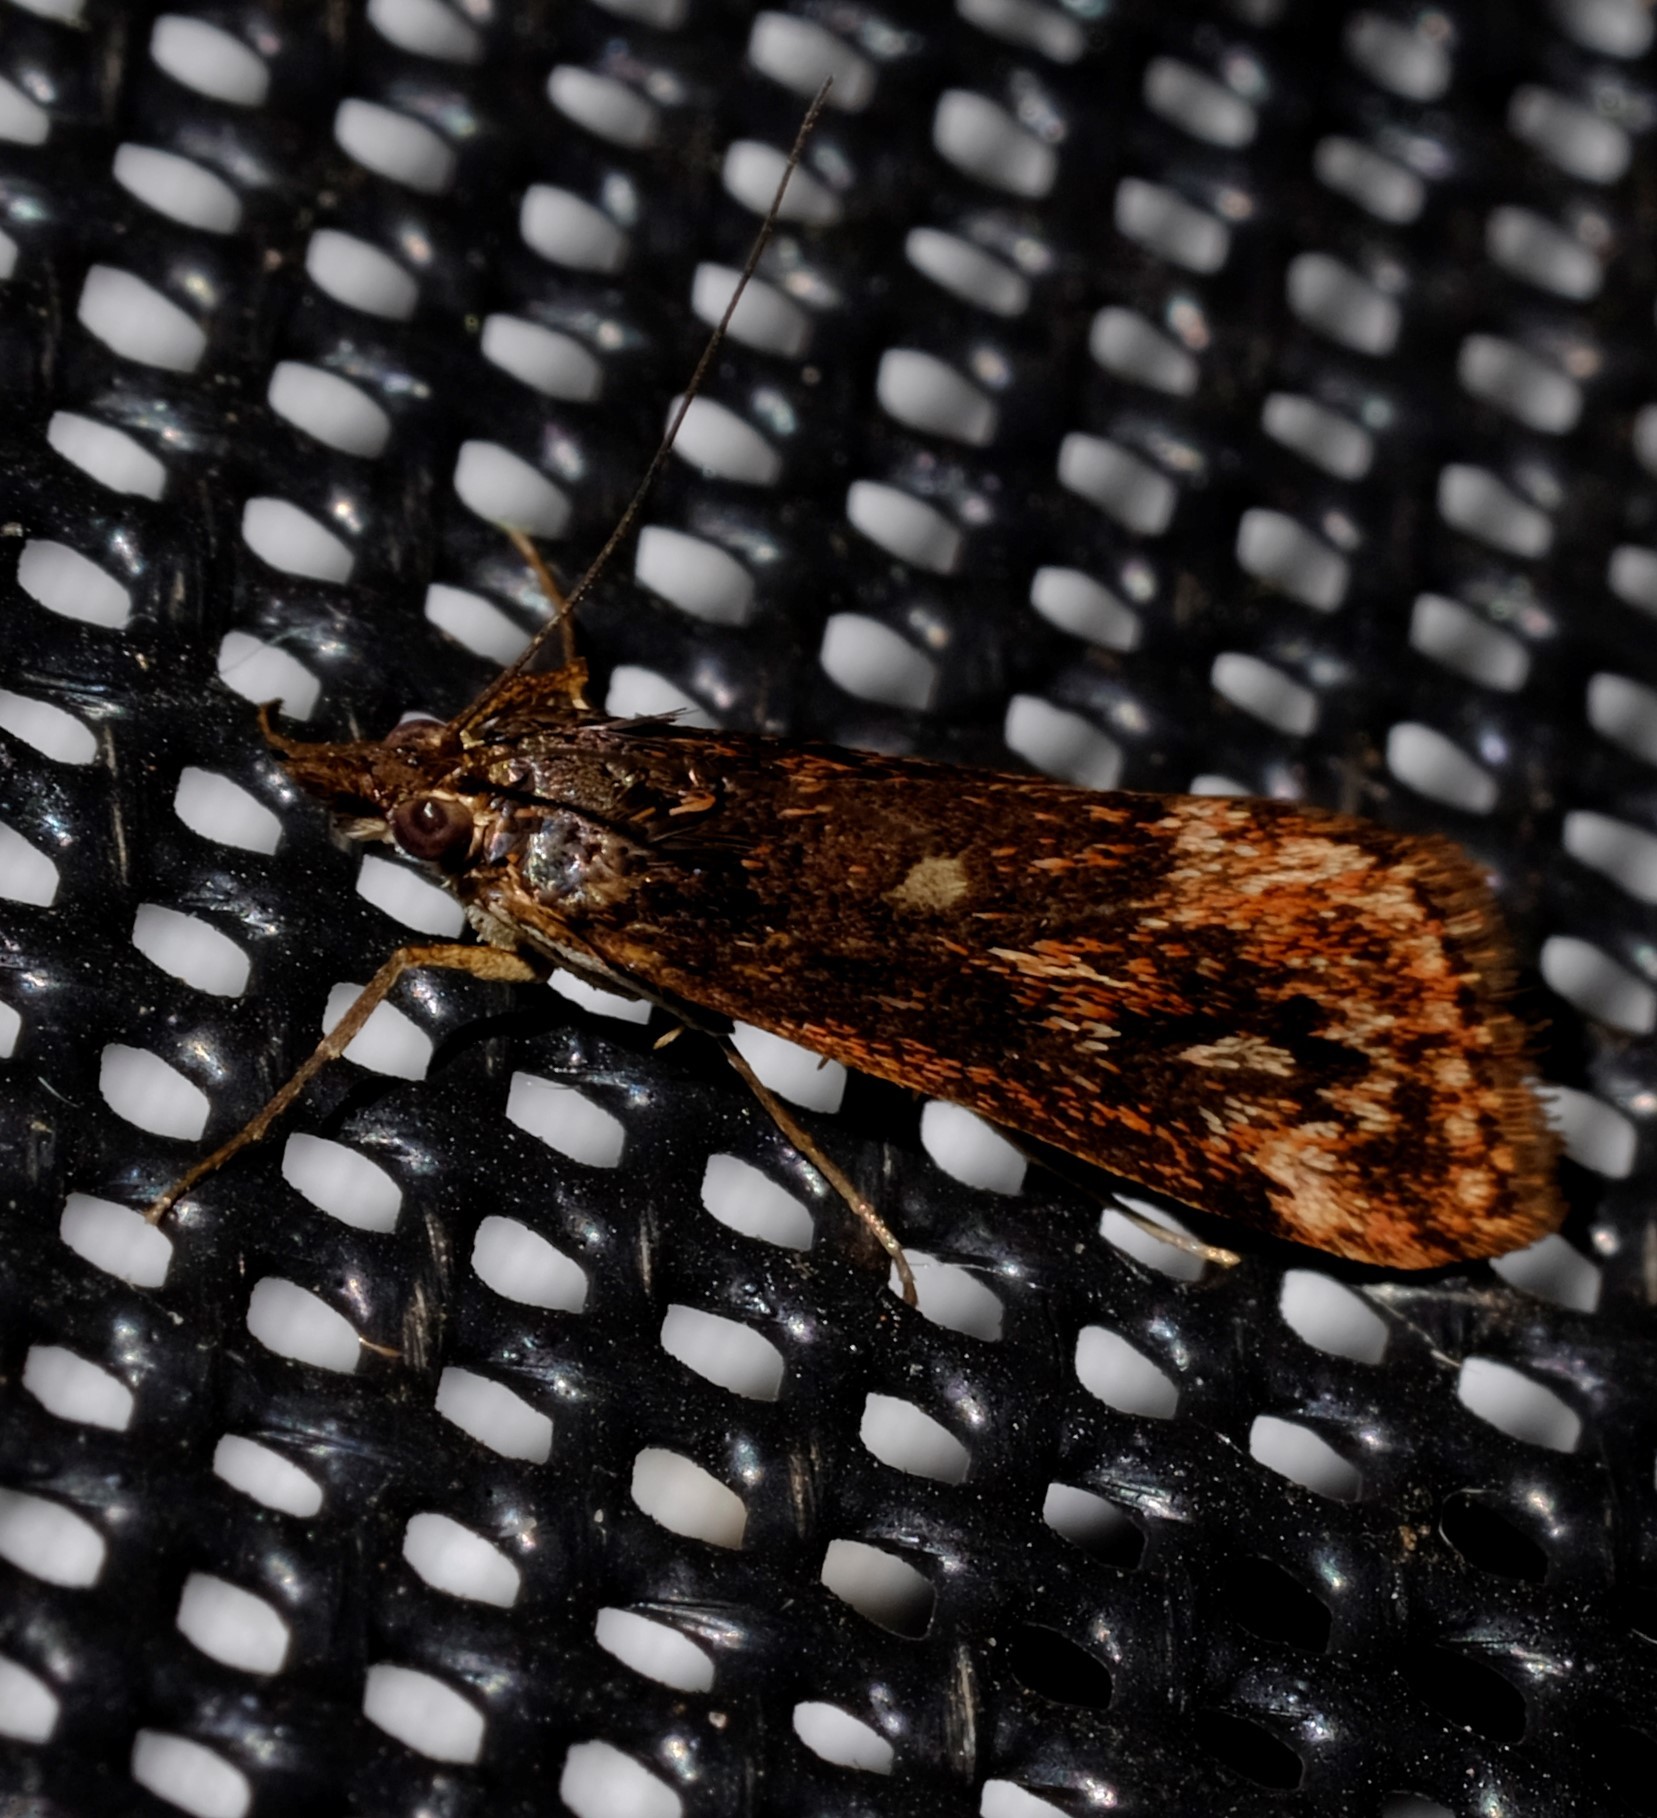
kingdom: Animalia
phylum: Arthropoda
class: Insecta
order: Lepidoptera
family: Crambidae
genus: Achyra
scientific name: Achyra affinitalis
